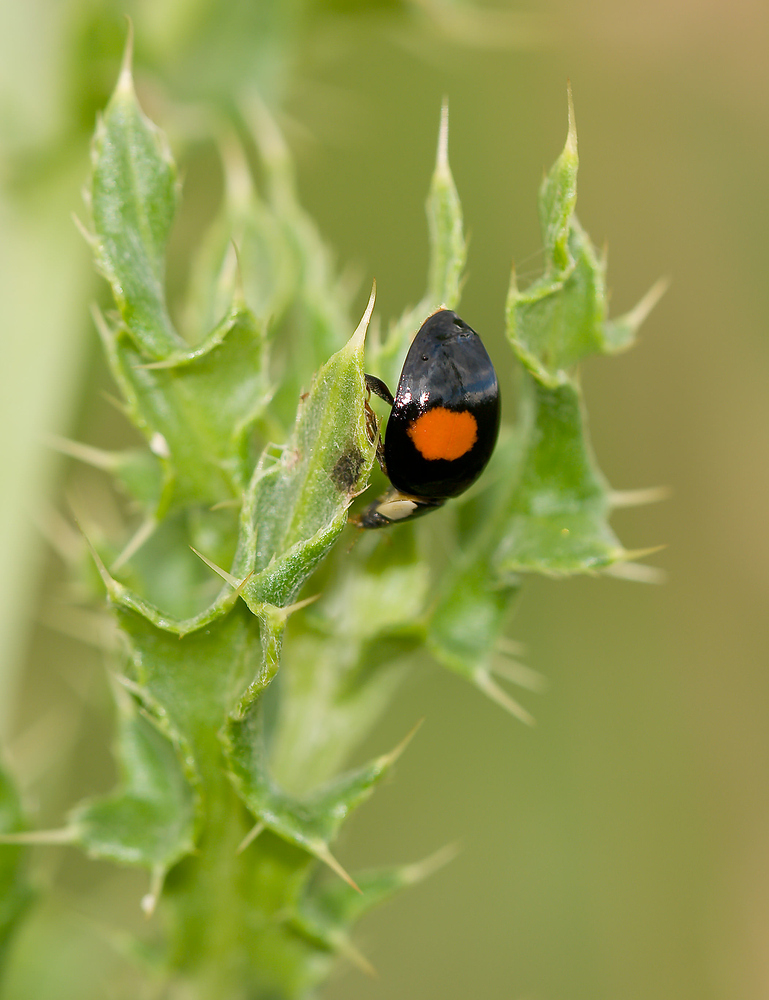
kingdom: Animalia
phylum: Arthropoda
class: Insecta
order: Coleoptera
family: Coccinellidae
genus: Harmonia
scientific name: Harmonia axyridis
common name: Harlequin ladybird
